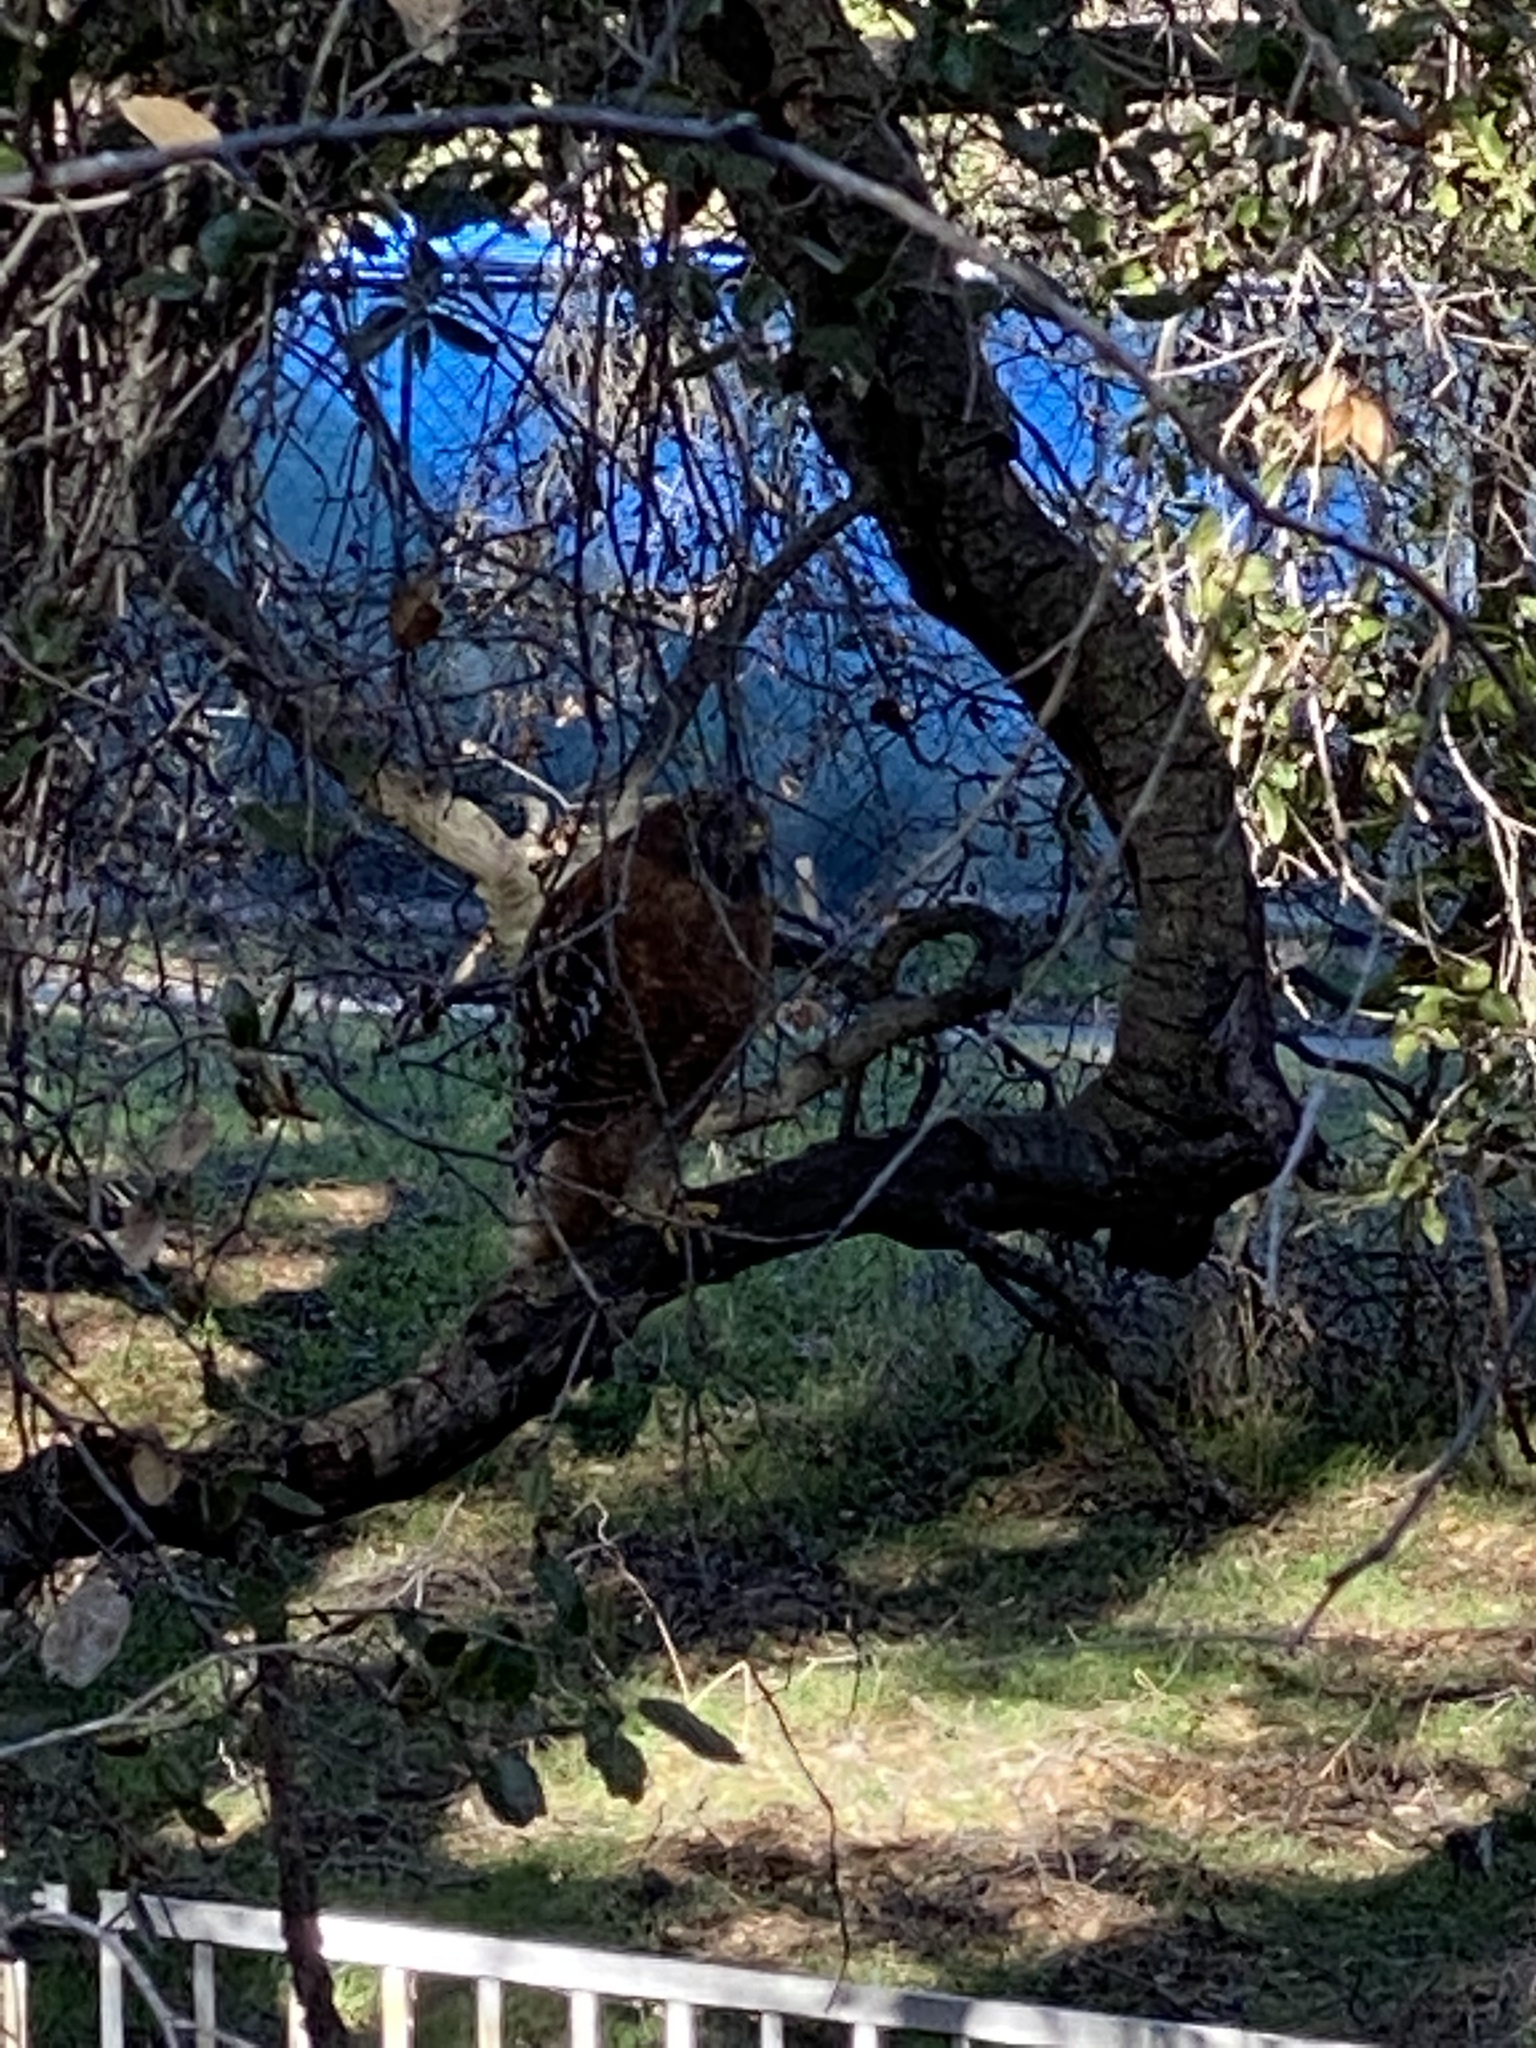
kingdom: Animalia
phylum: Chordata
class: Aves
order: Accipitriformes
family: Accipitridae
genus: Buteo
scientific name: Buteo lineatus
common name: Red-shouldered hawk
